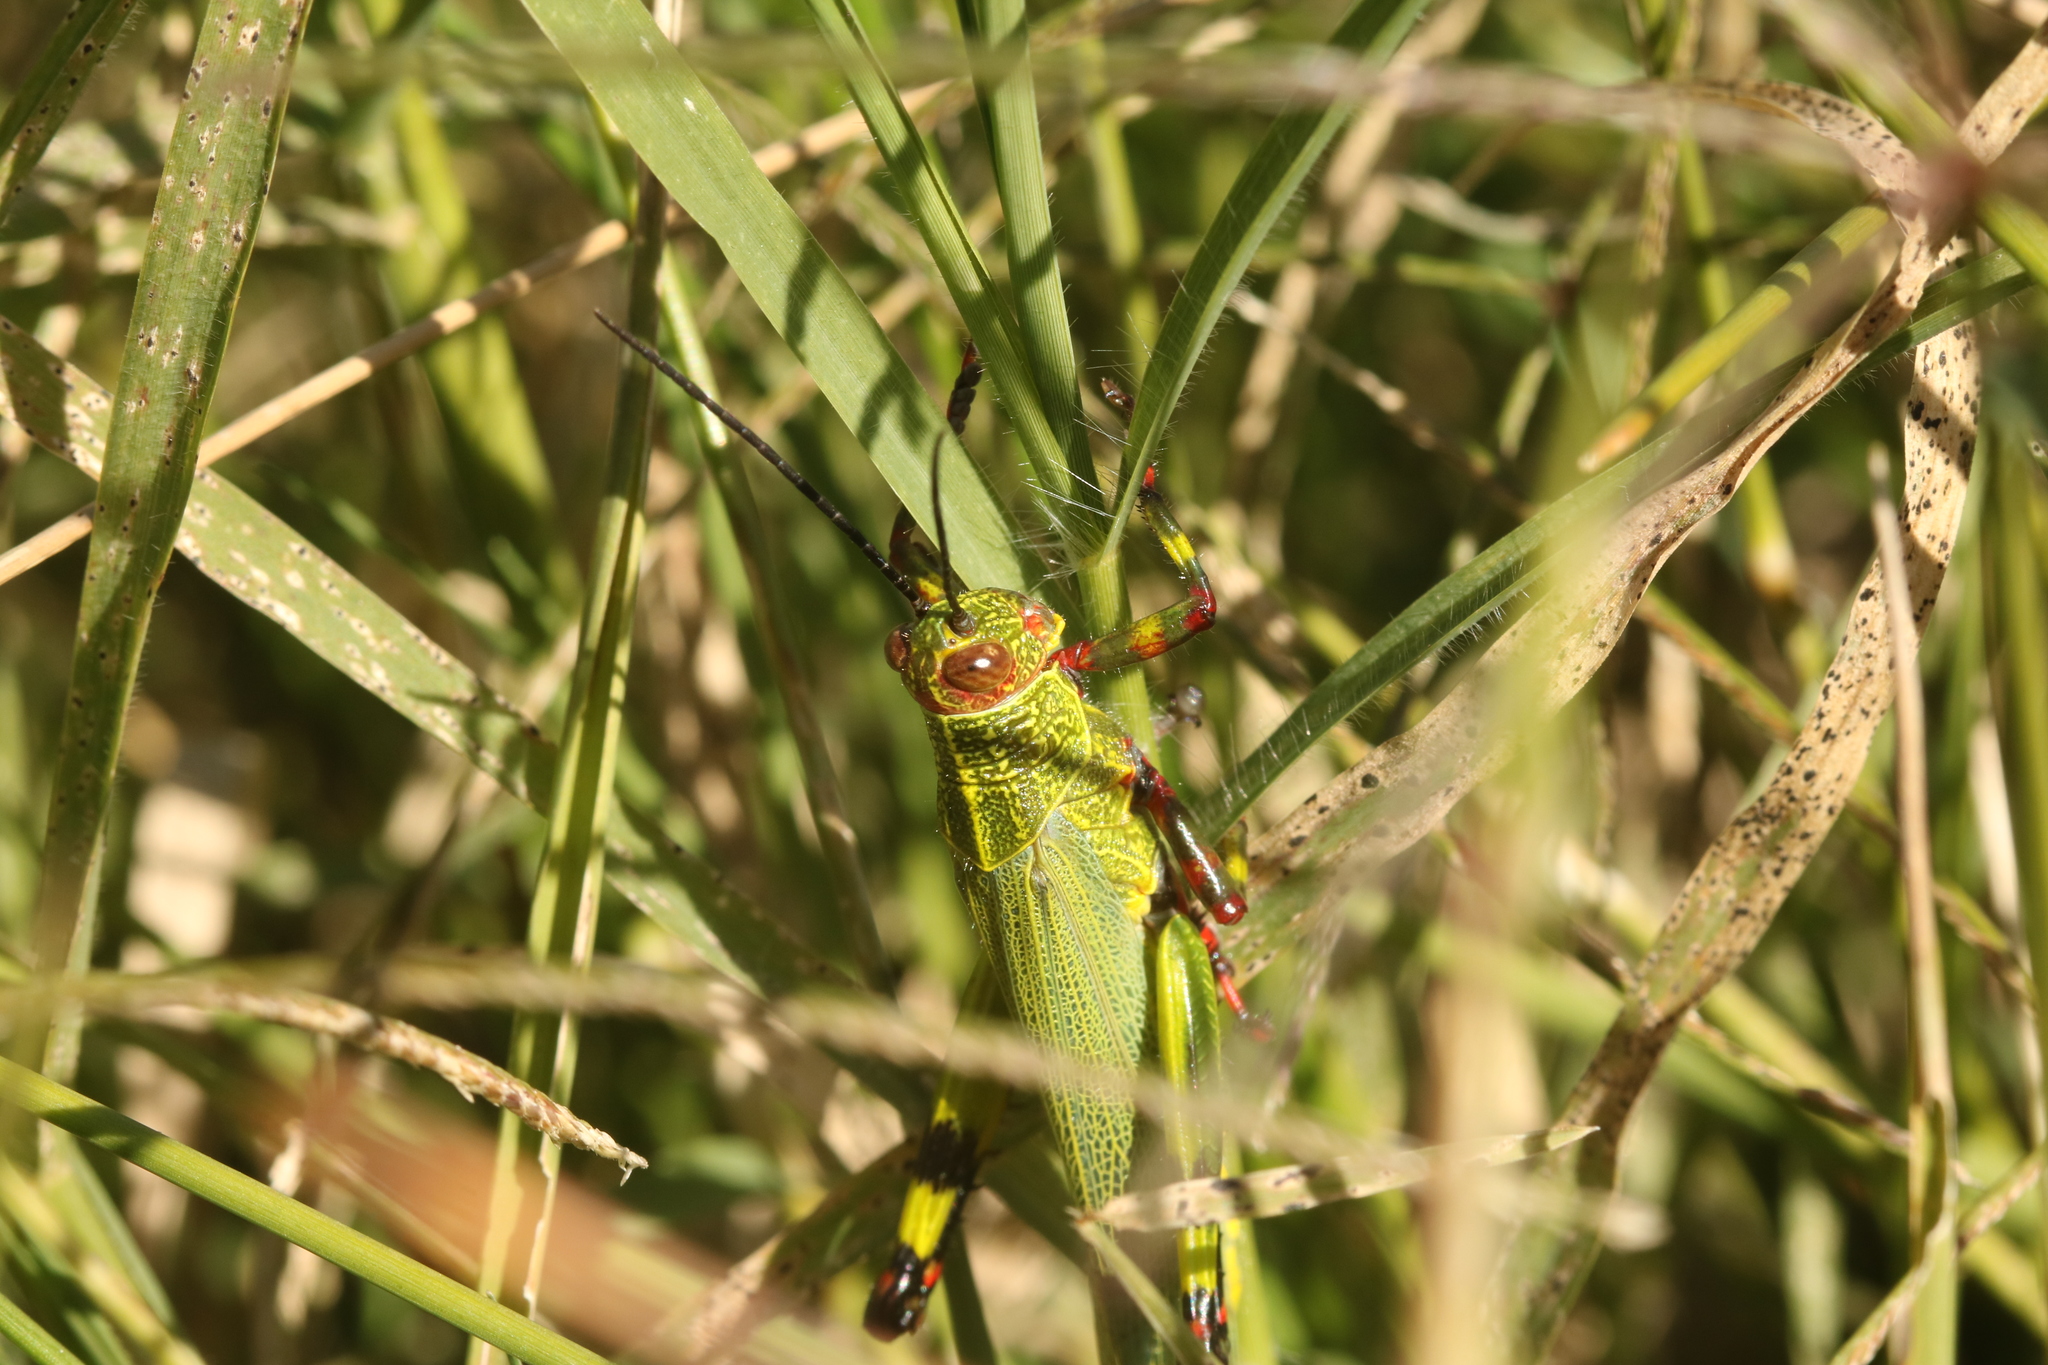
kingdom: Animalia
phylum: Arthropoda
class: Insecta
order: Orthoptera
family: Romaleidae
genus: Zoniopoda
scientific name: Zoniopoda tarsata
